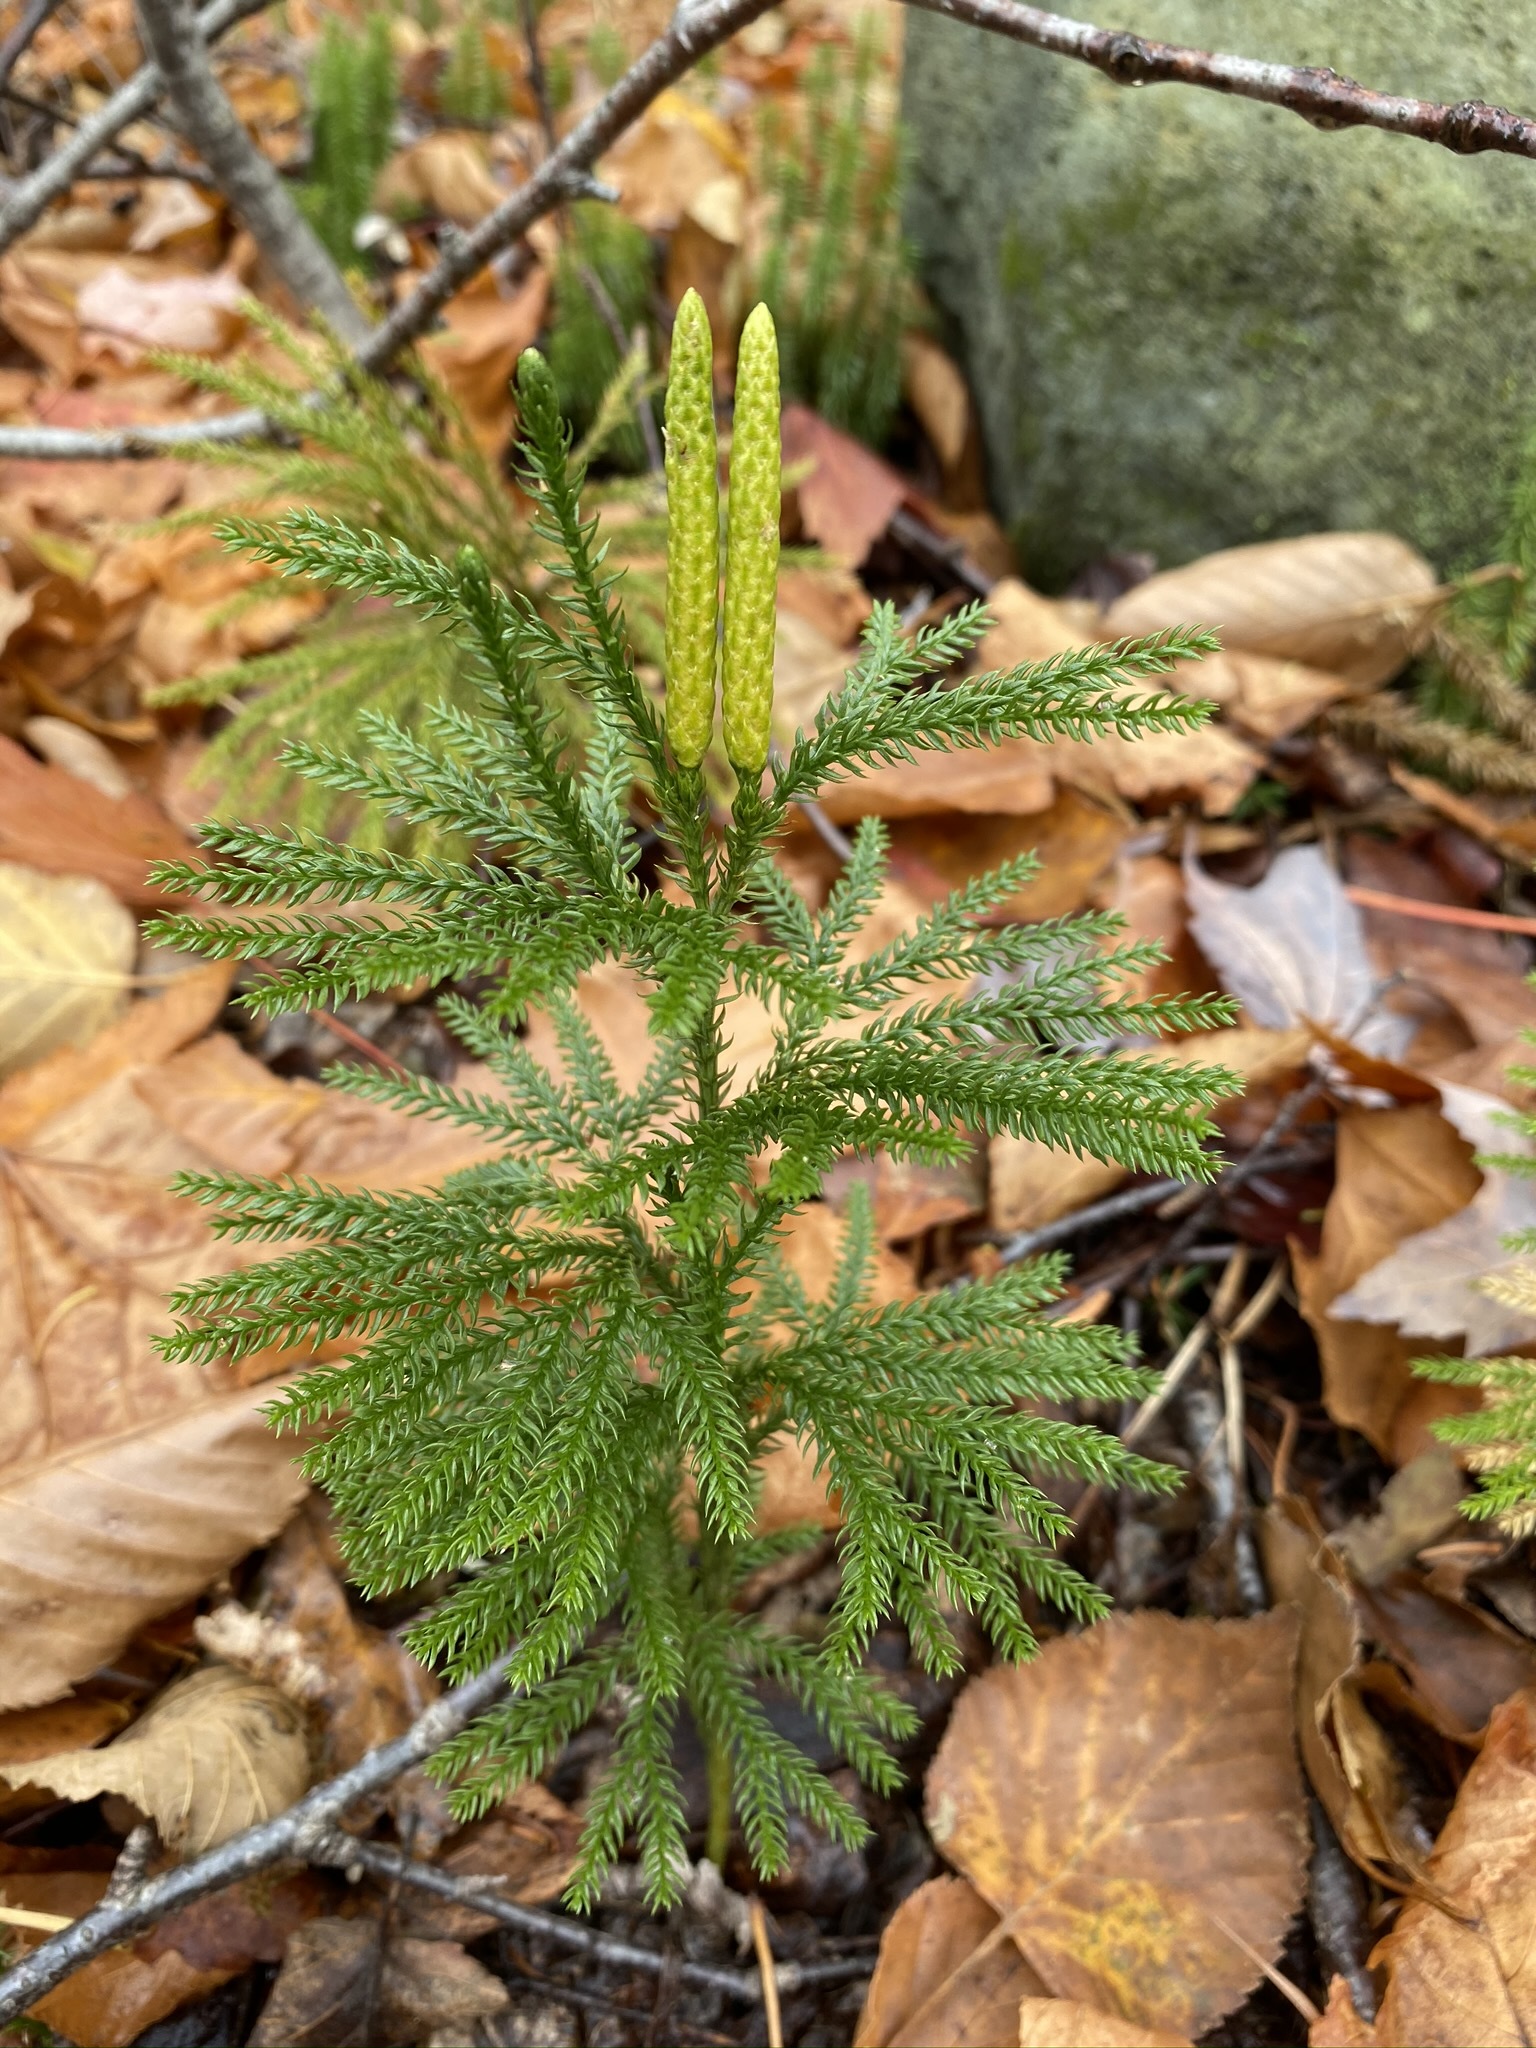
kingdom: Plantae
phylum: Tracheophyta
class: Lycopodiopsida
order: Lycopodiales
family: Lycopodiaceae
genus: Dendrolycopodium
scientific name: Dendrolycopodium dendroideum
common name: Northern tree-clubmoss
